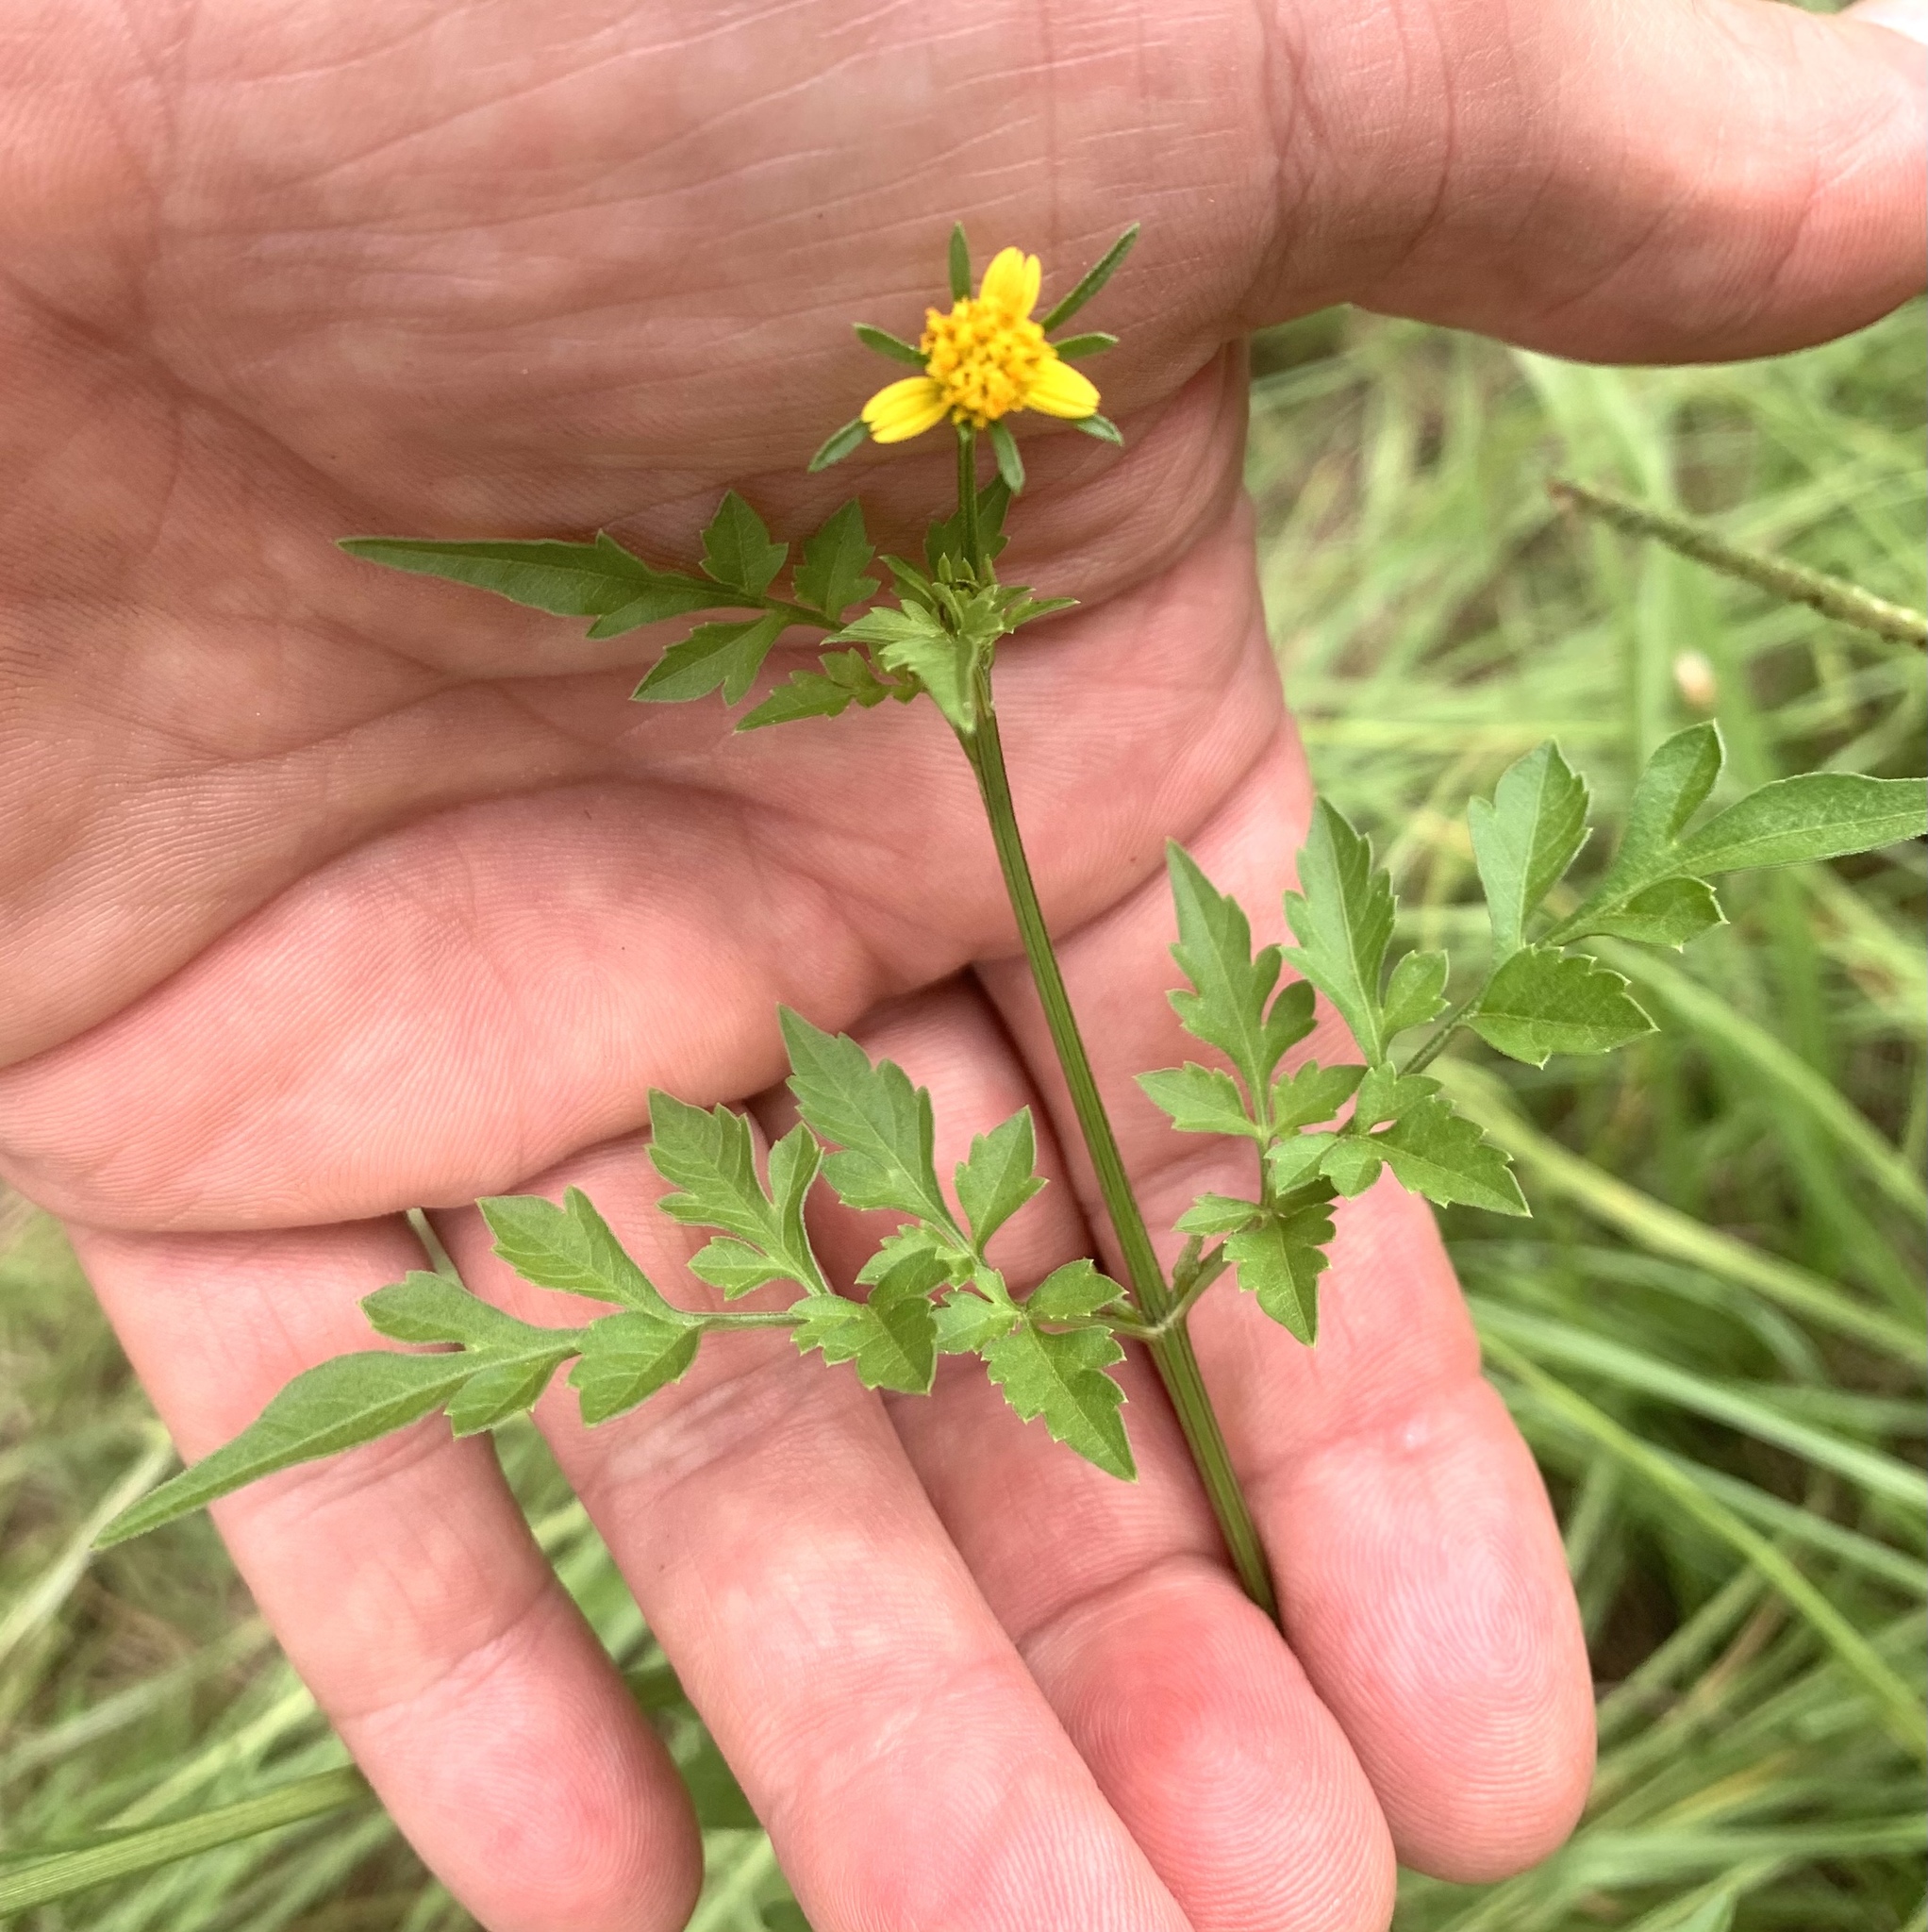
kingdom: Plantae
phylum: Tracheophyta
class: Magnoliopsida
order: Asterales
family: Asteraceae
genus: Bidens
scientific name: Bidens bipinnata
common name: Spanish-needles
